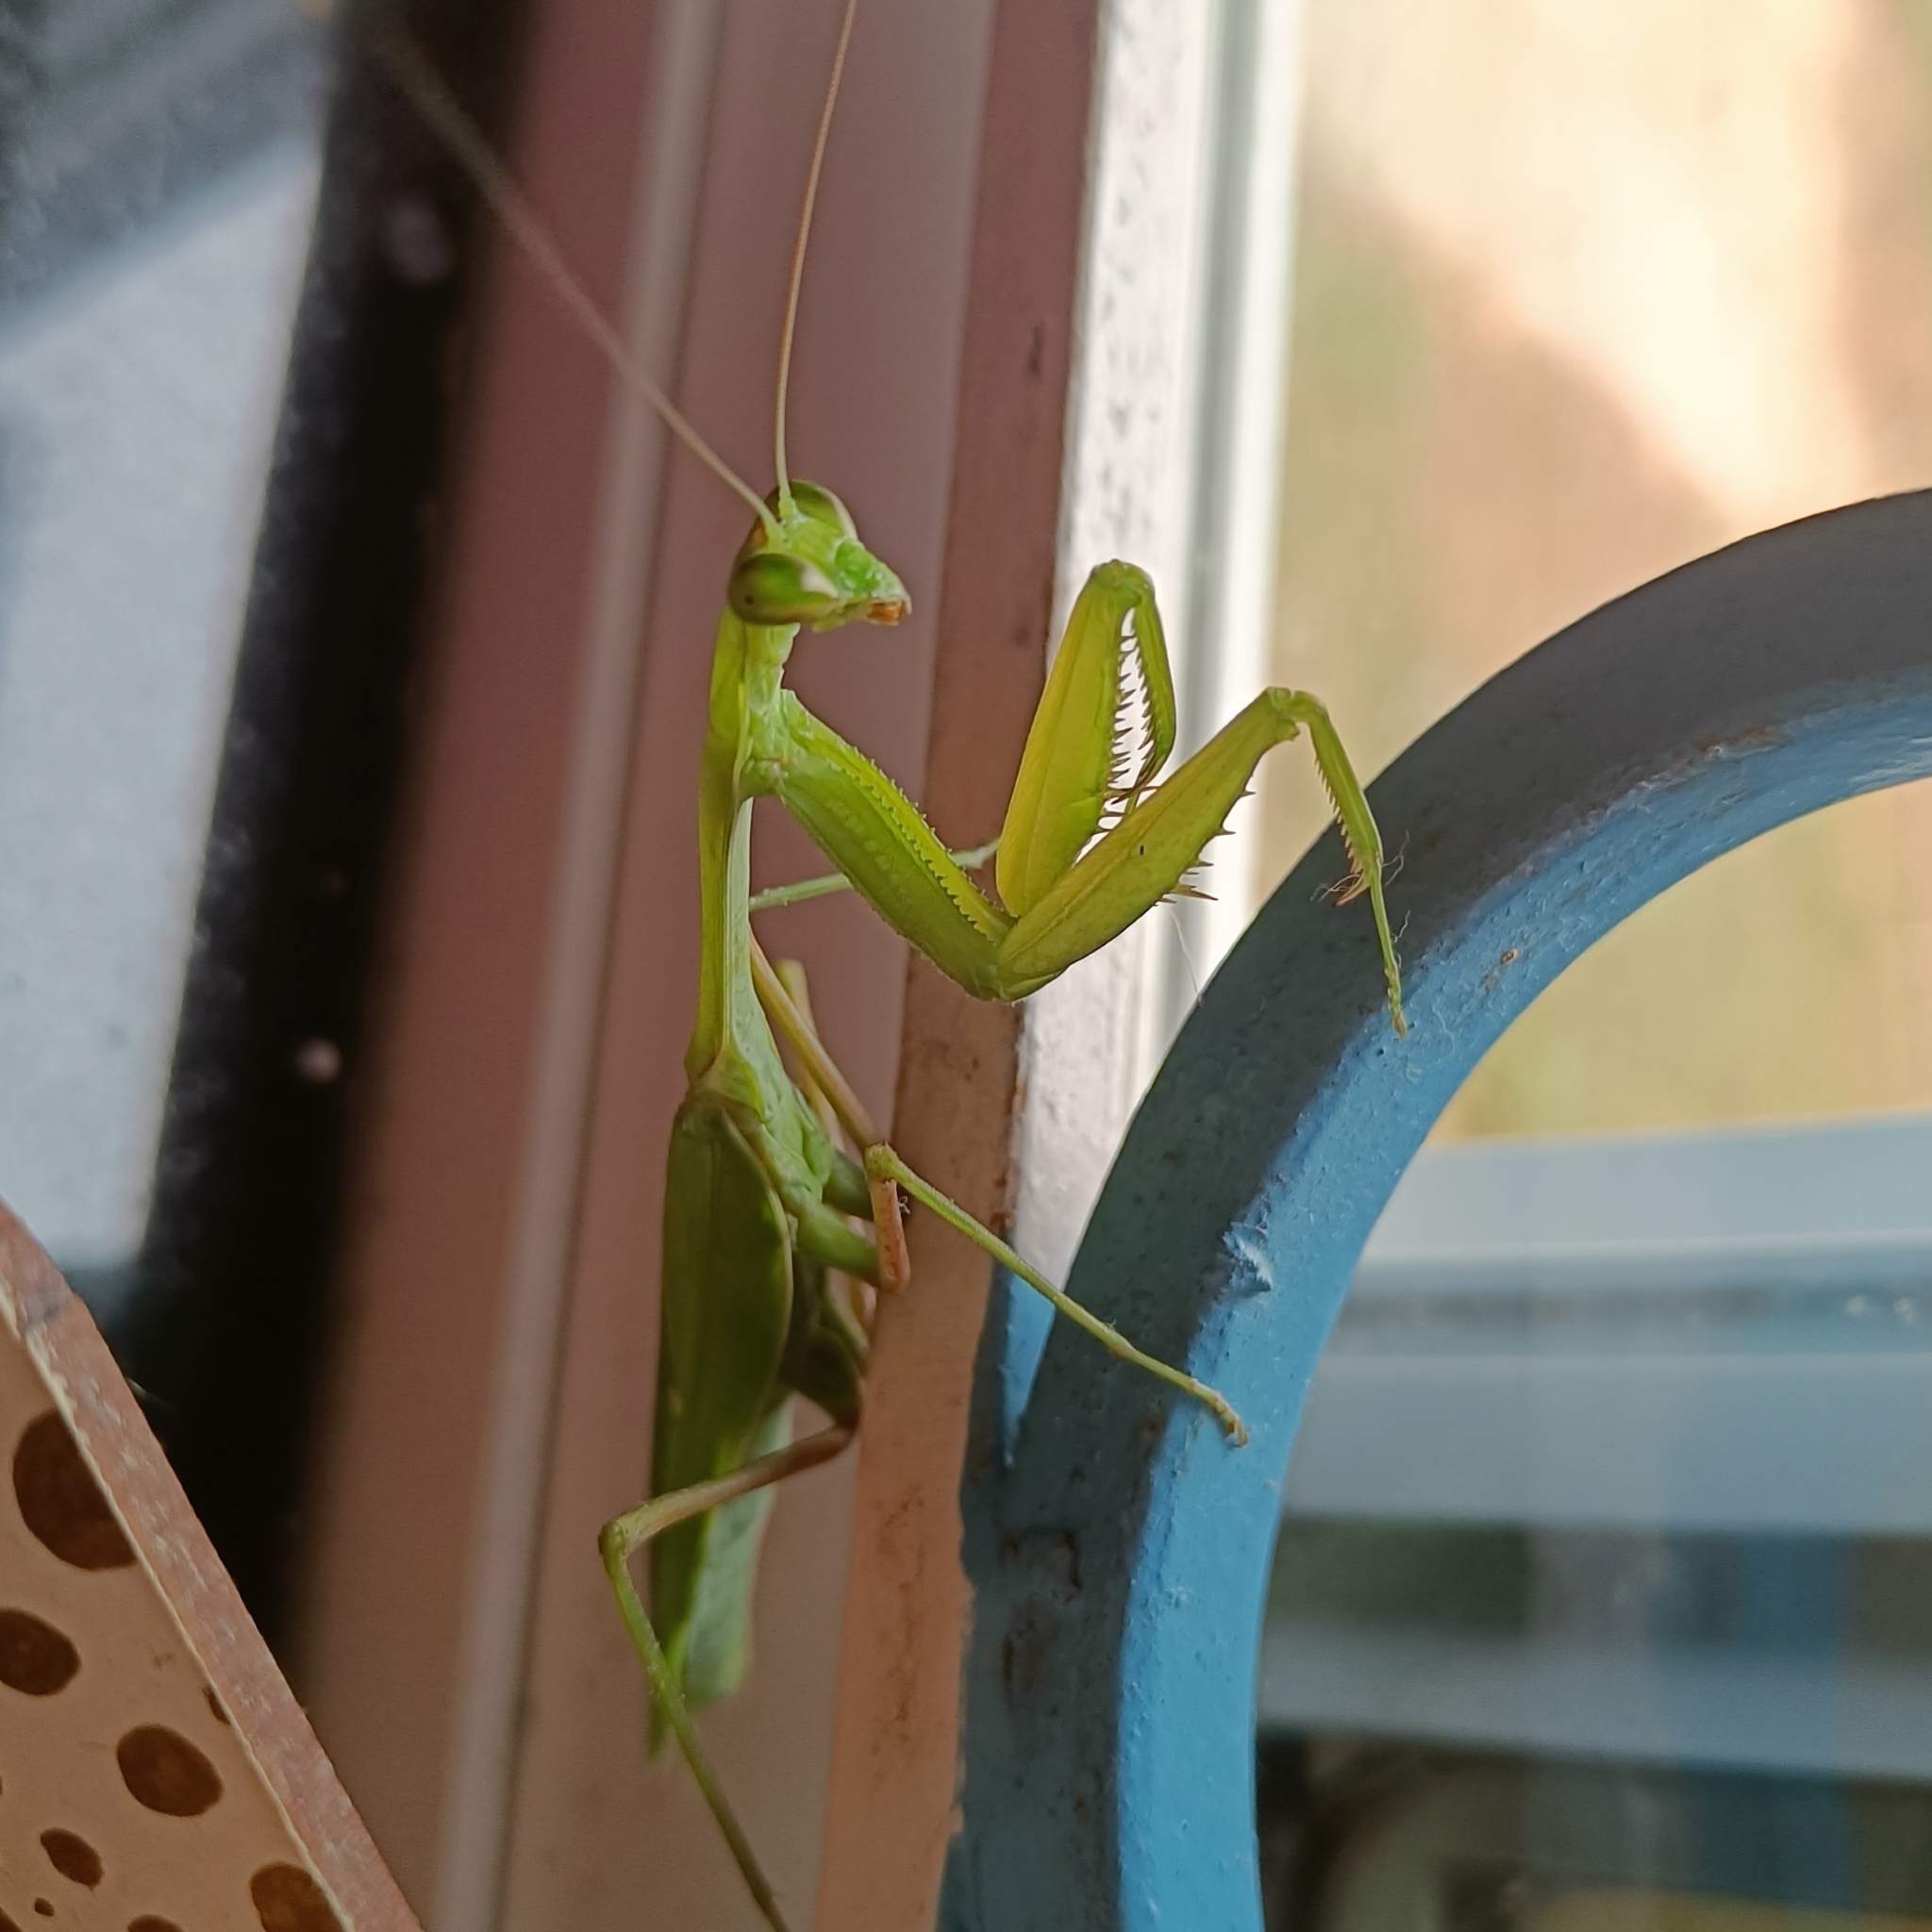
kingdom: Animalia
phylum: Arthropoda
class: Insecta
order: Mantodea
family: Mantidae
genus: Hierodula
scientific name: Hierodula membranacea
